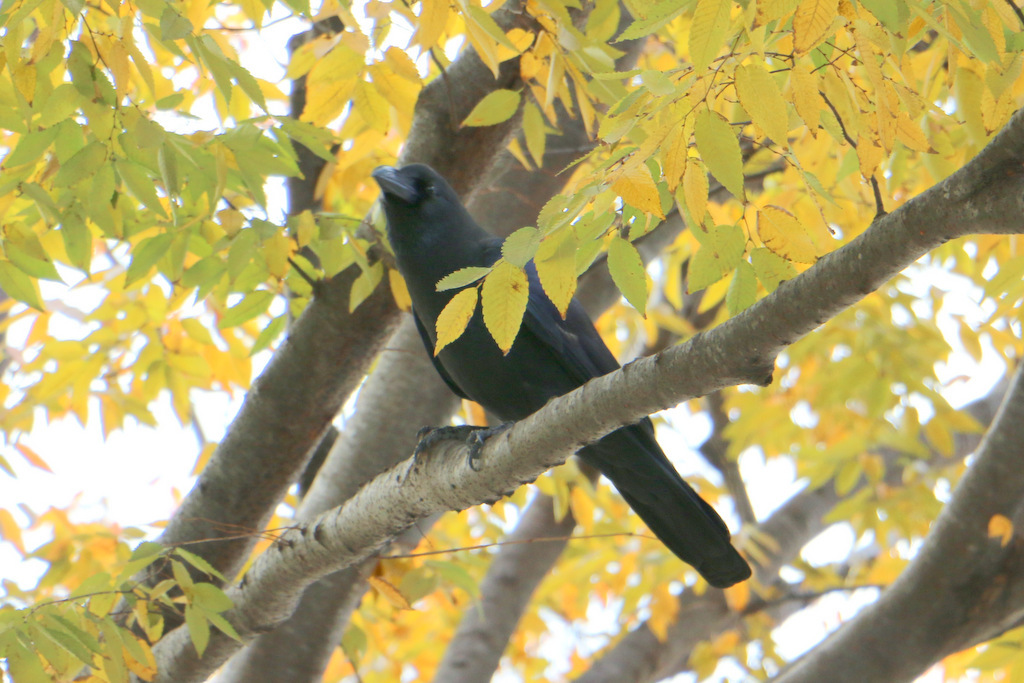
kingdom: Animalia
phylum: Chordata
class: Aves
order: Passeriformes
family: Corvidae
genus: Corvus
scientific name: Corvus macrorhynchos
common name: Large-billed crow
